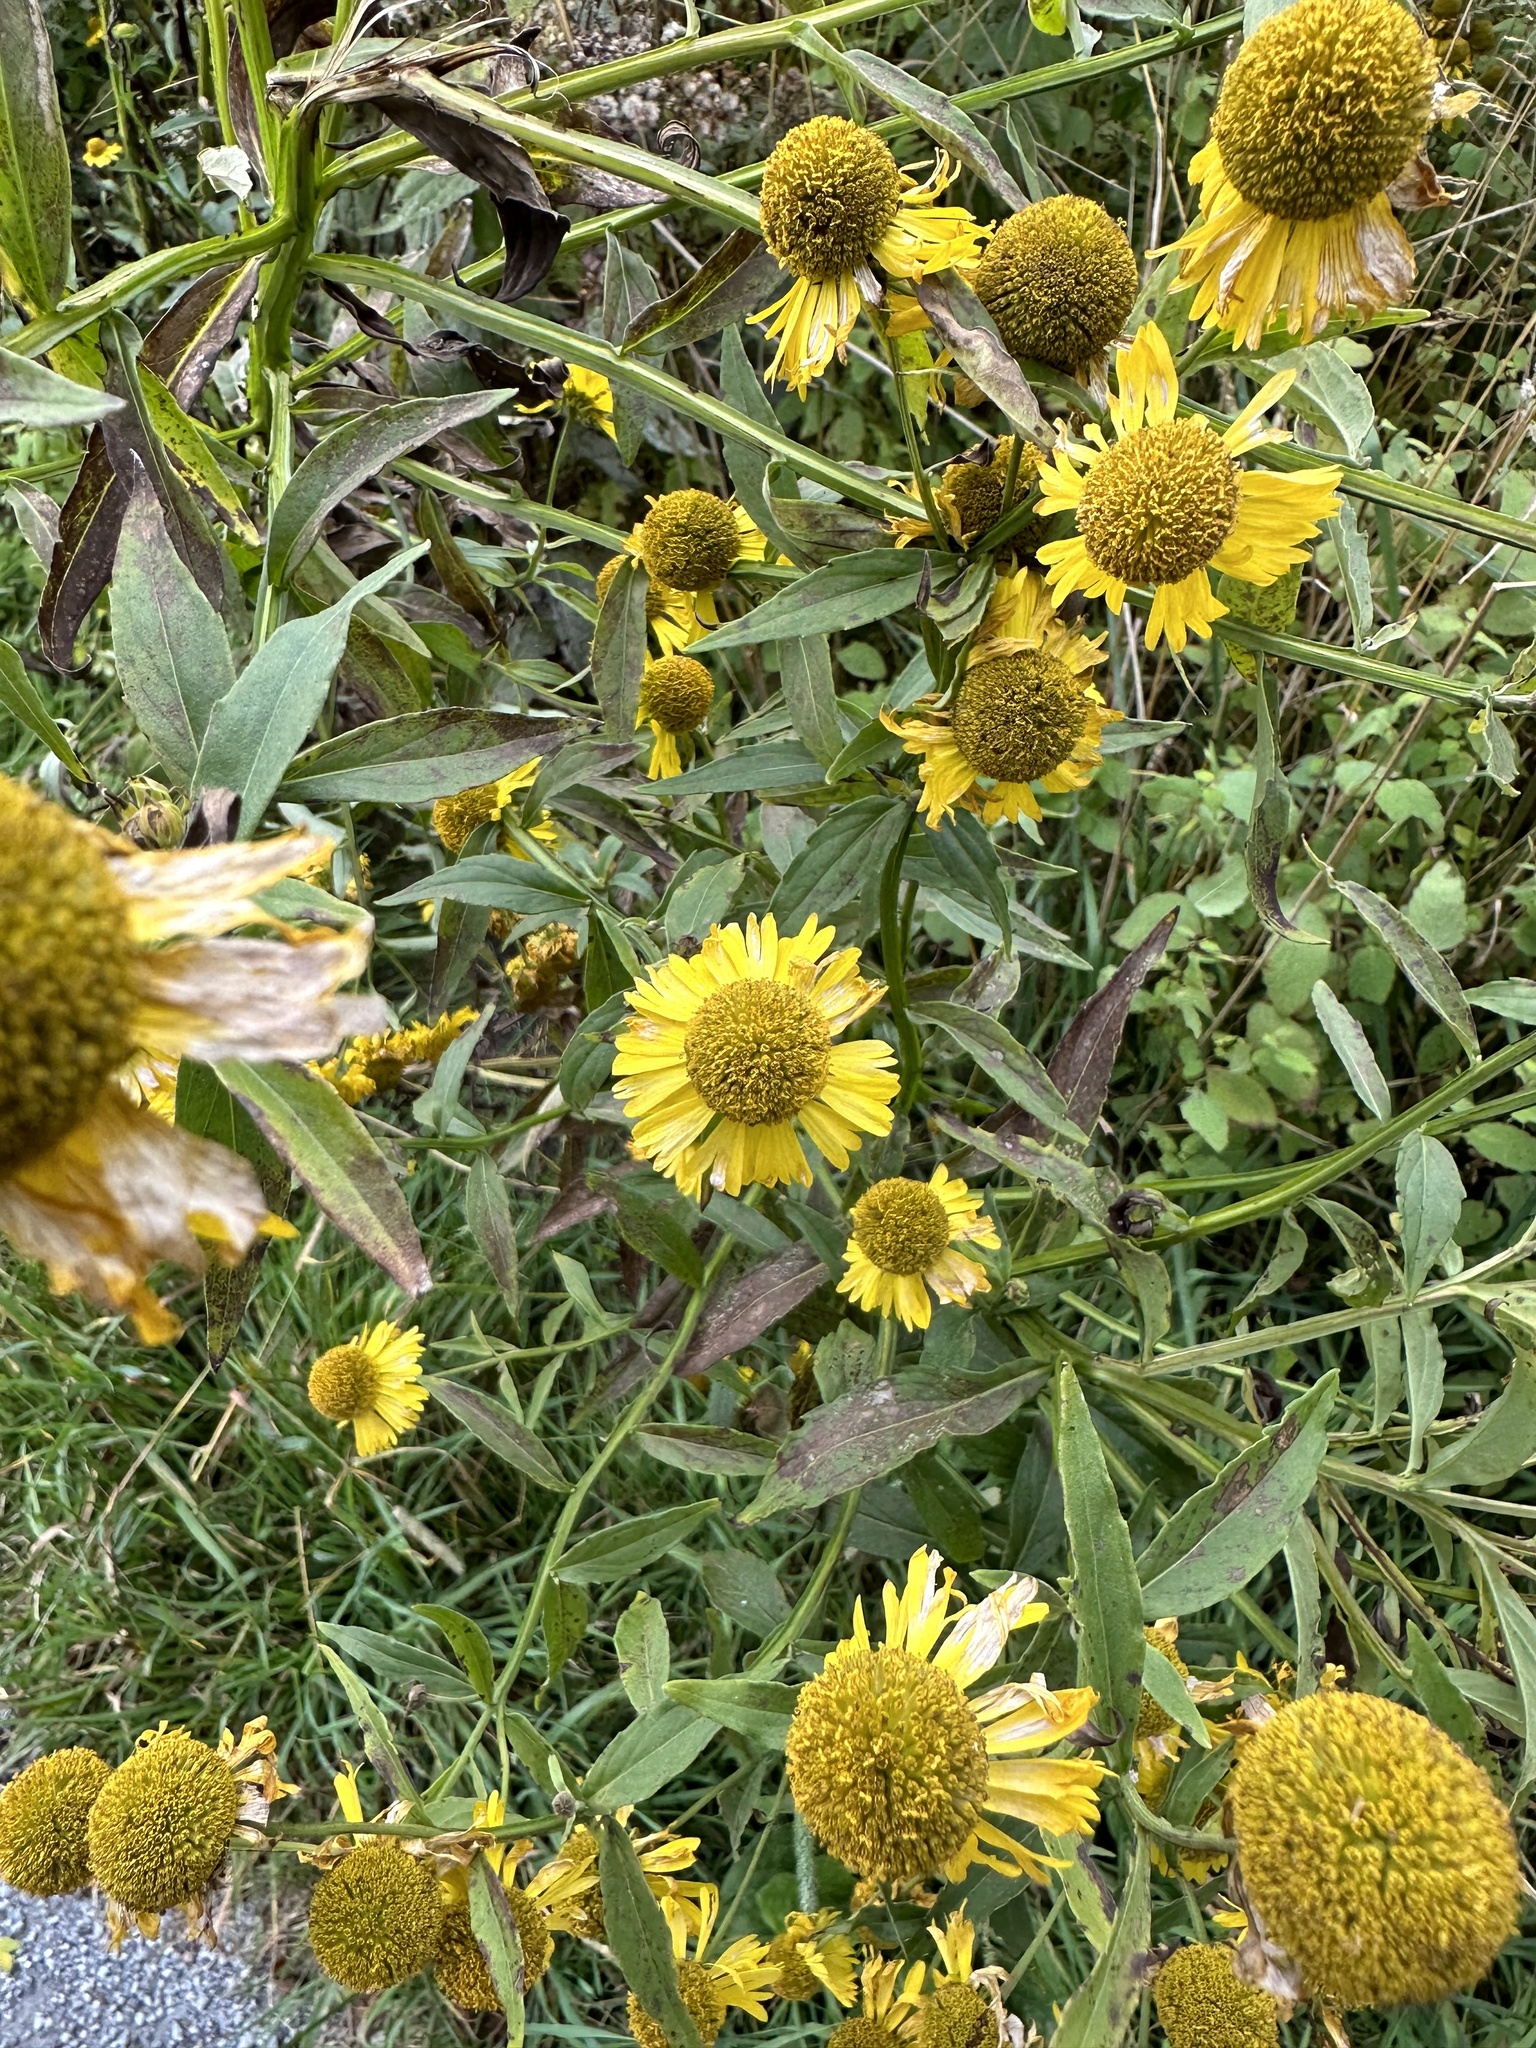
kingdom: Plantae
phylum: Tracheophyta
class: Magnoliopsida
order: Asterales
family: Asteraceae
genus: Helenium
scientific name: Helenium autumnale
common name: Sneezeweed
